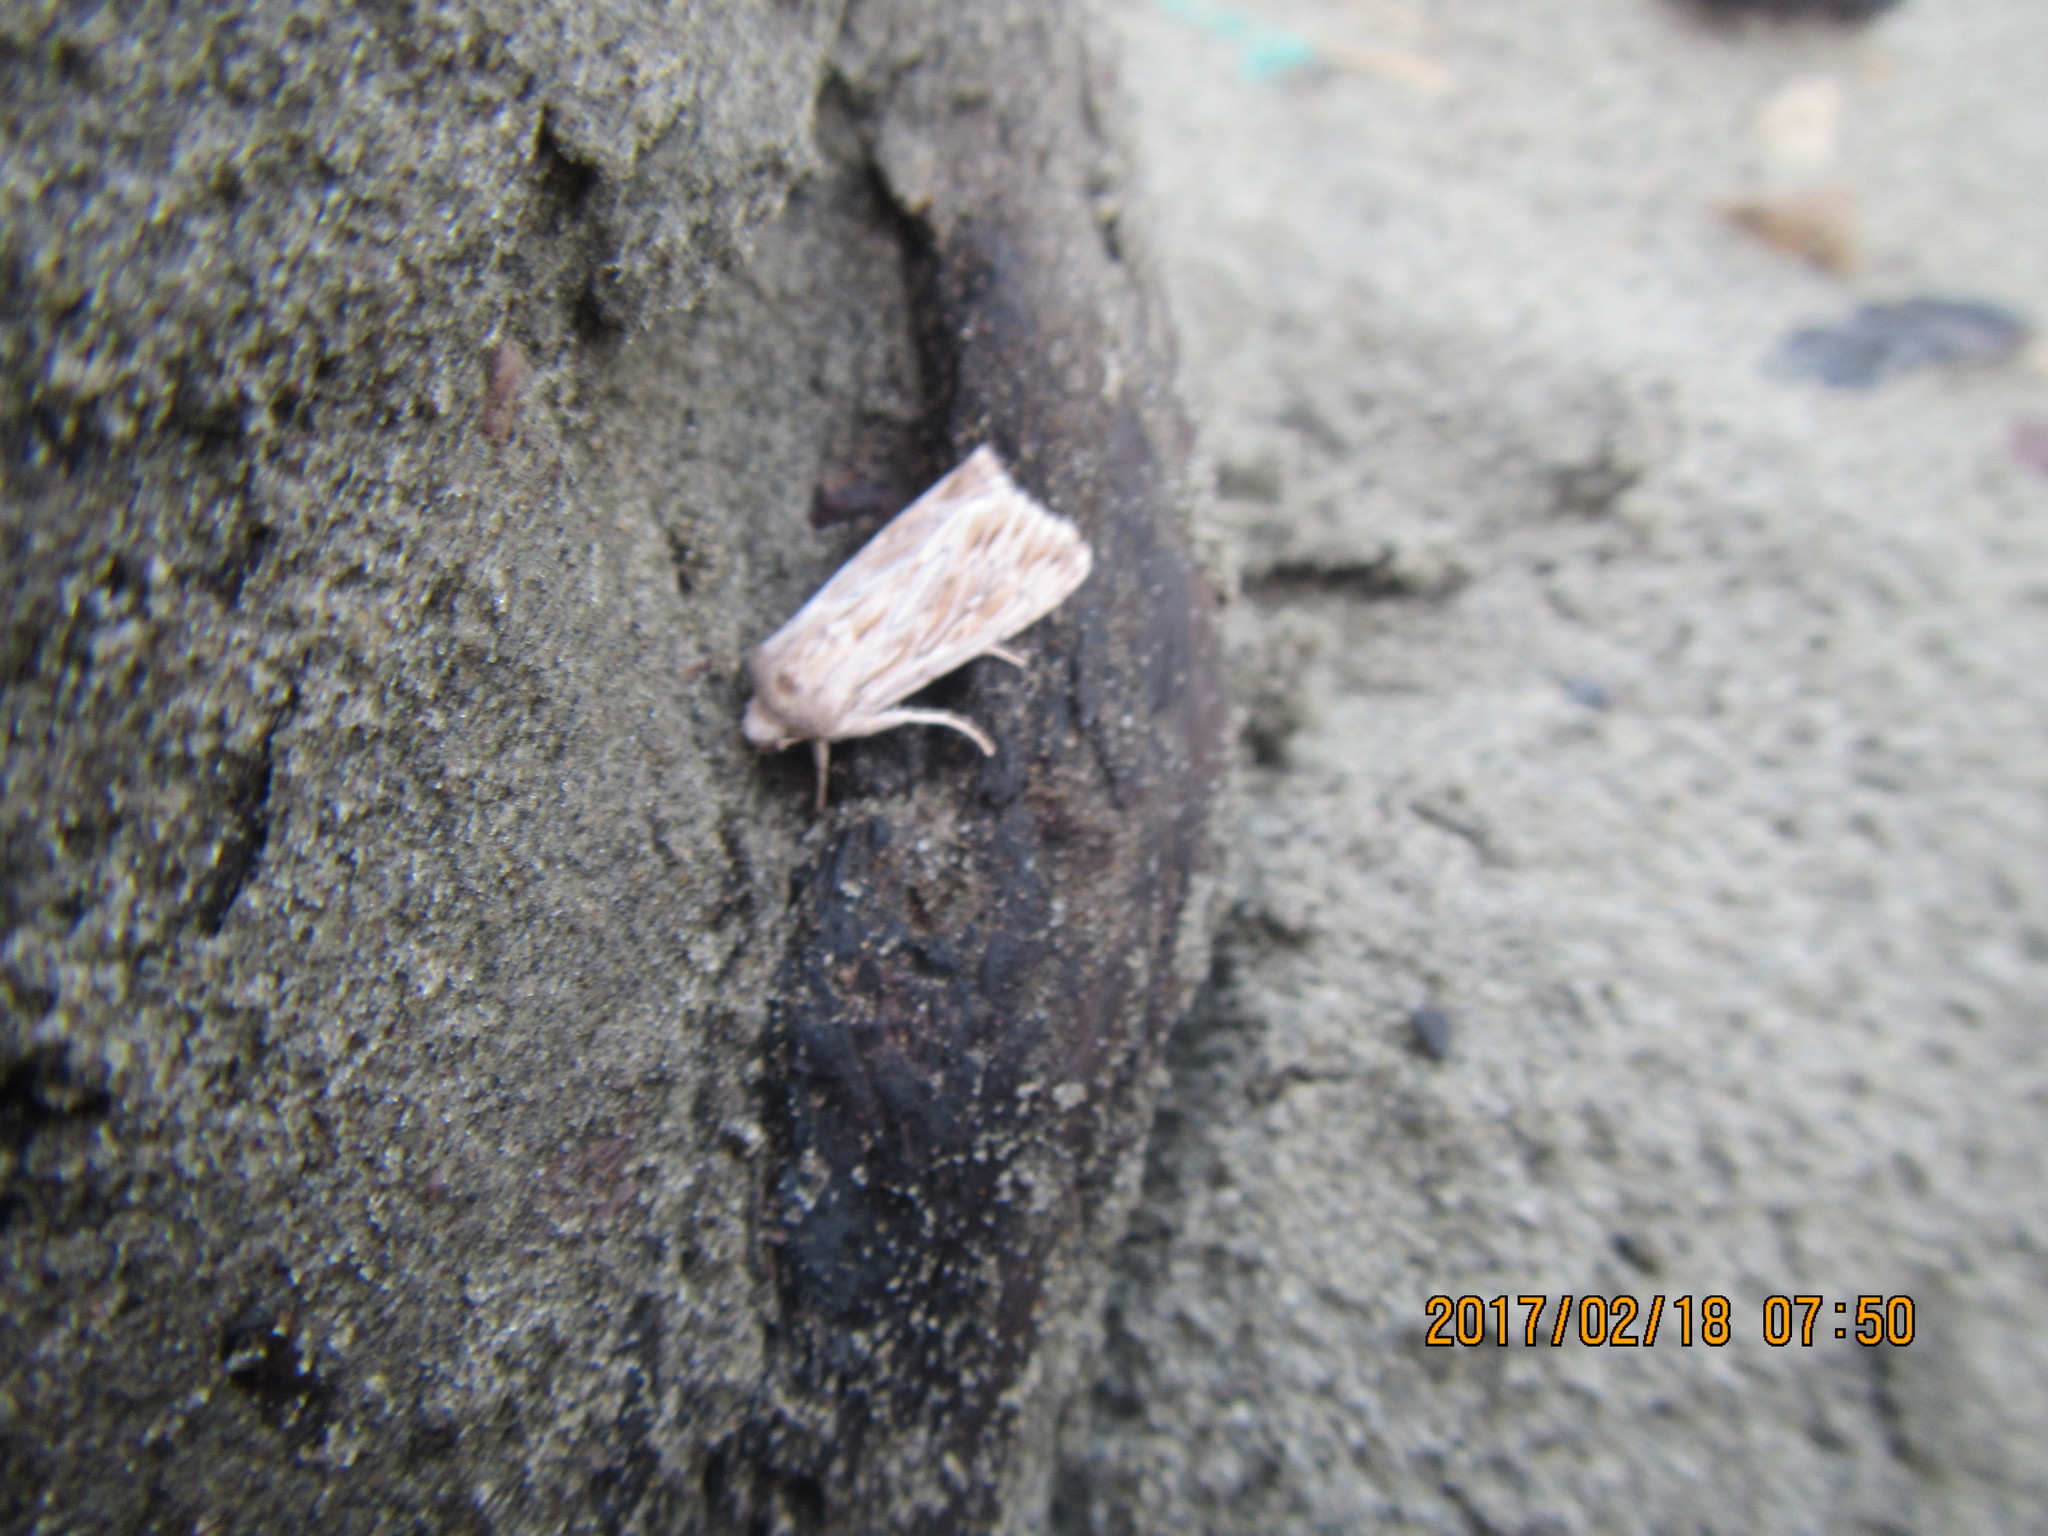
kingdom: Animalia
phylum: Arthropoda
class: Insecta
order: Lepidoptera
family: Noctuidae
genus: Persectania
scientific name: Persectania aversa
